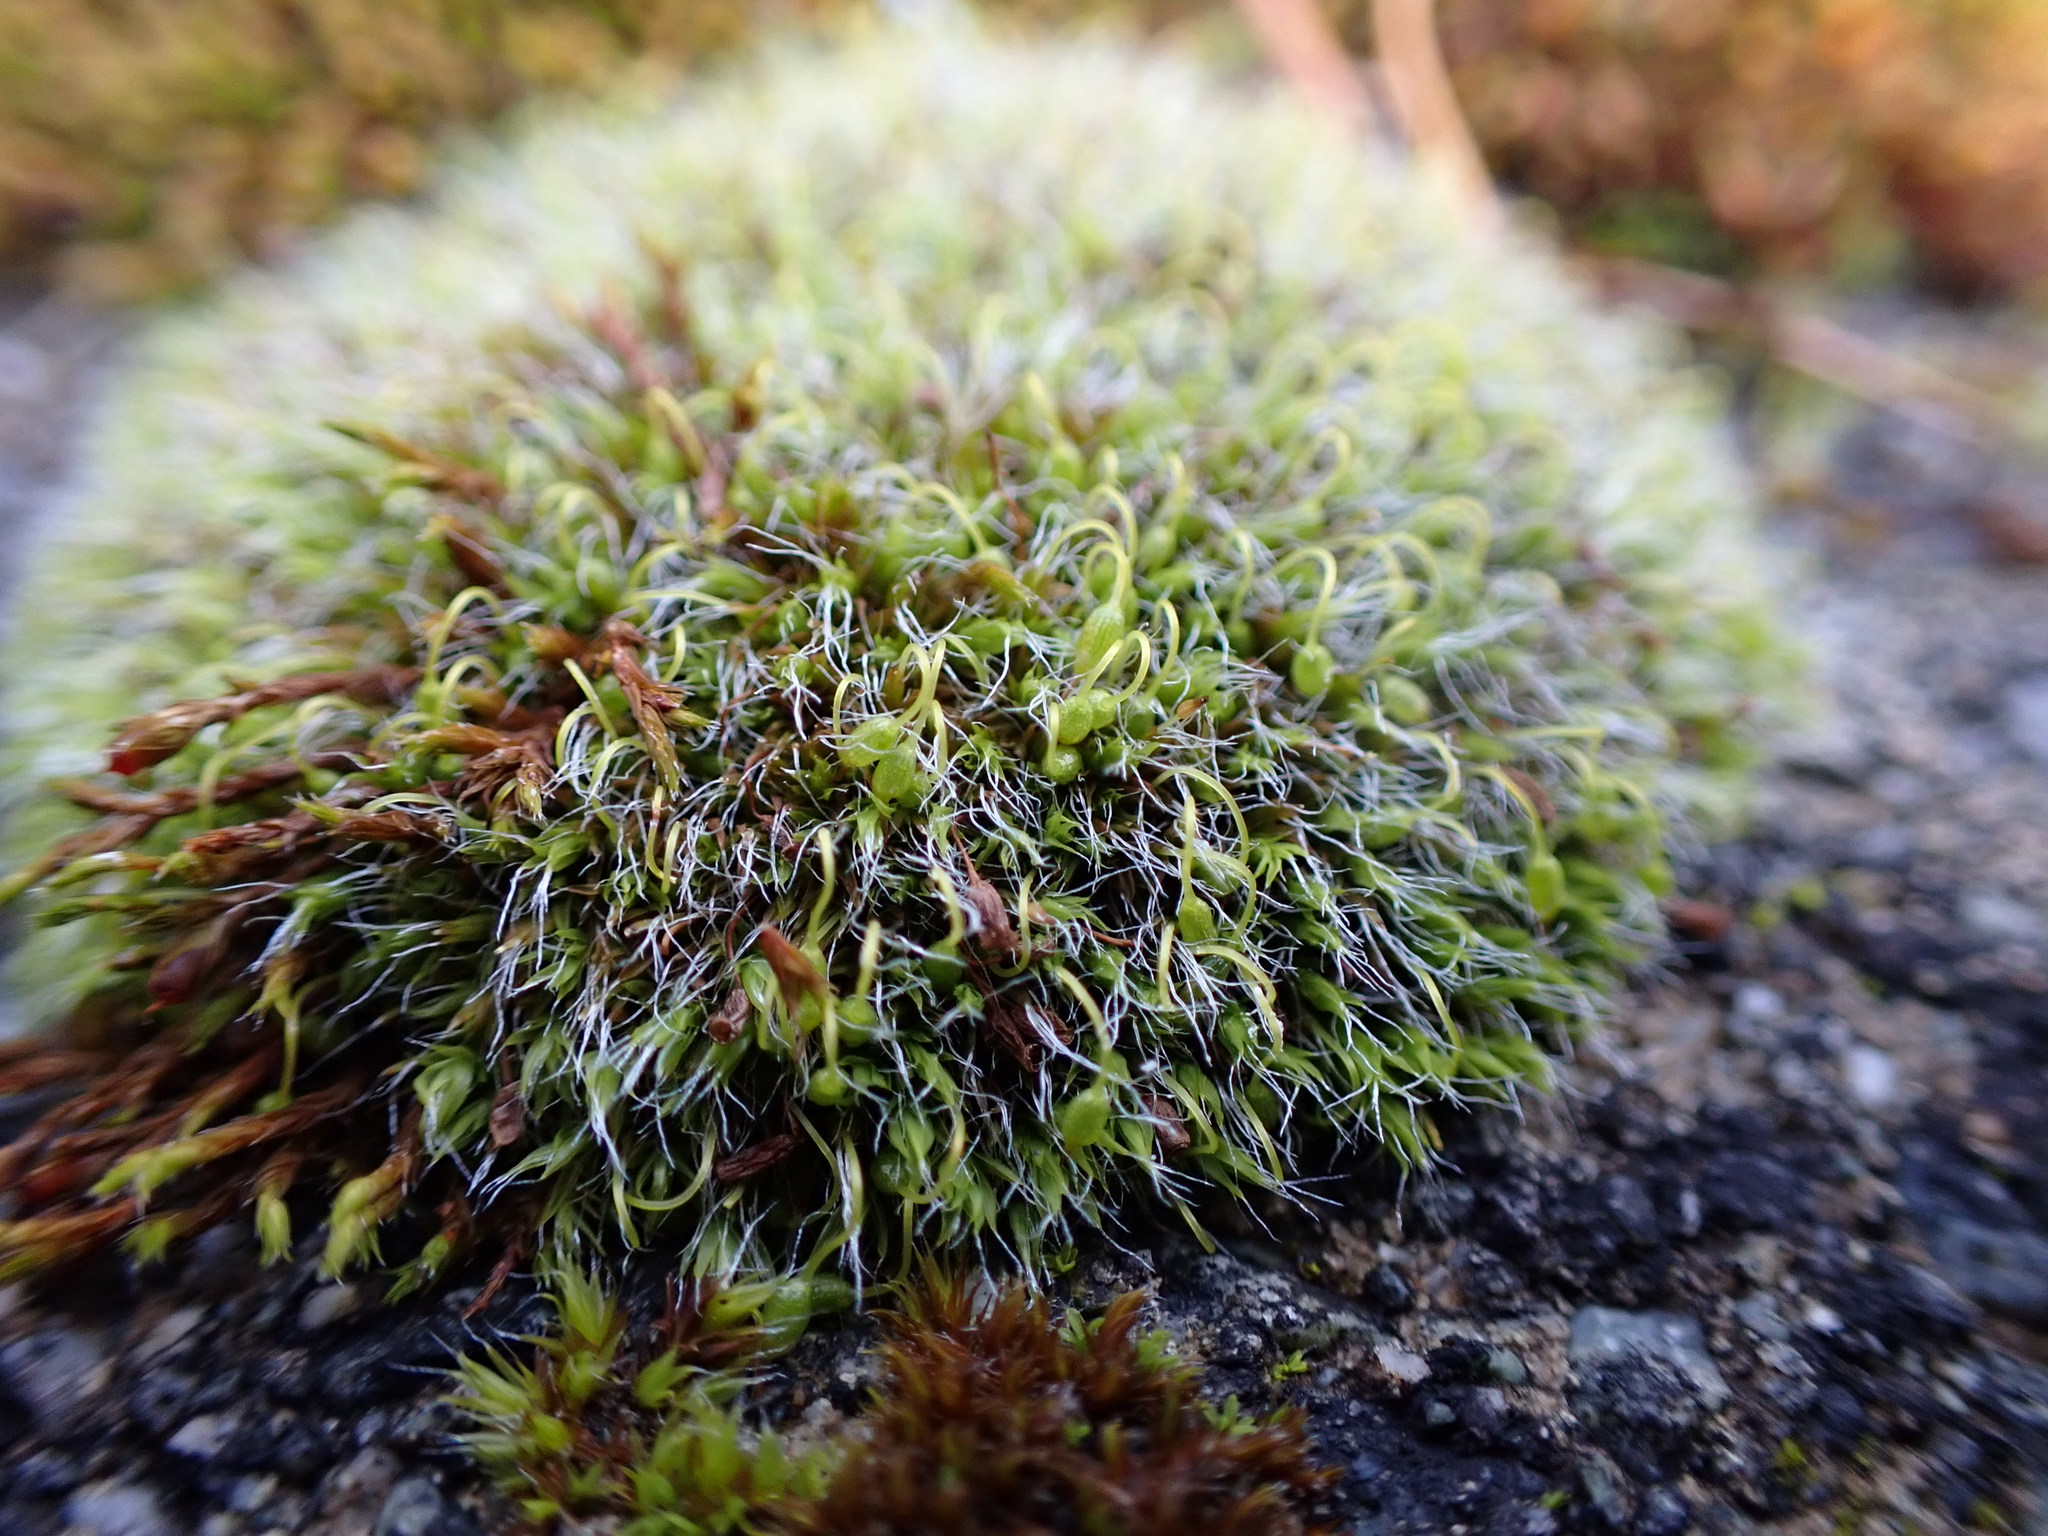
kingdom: Plantae
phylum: Bryophyta
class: Bryopsida
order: Grimmiales
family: Grimmiaceae
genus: Grimmia
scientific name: Grimmia pulvinata
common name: Grey-cushioned grimmia
